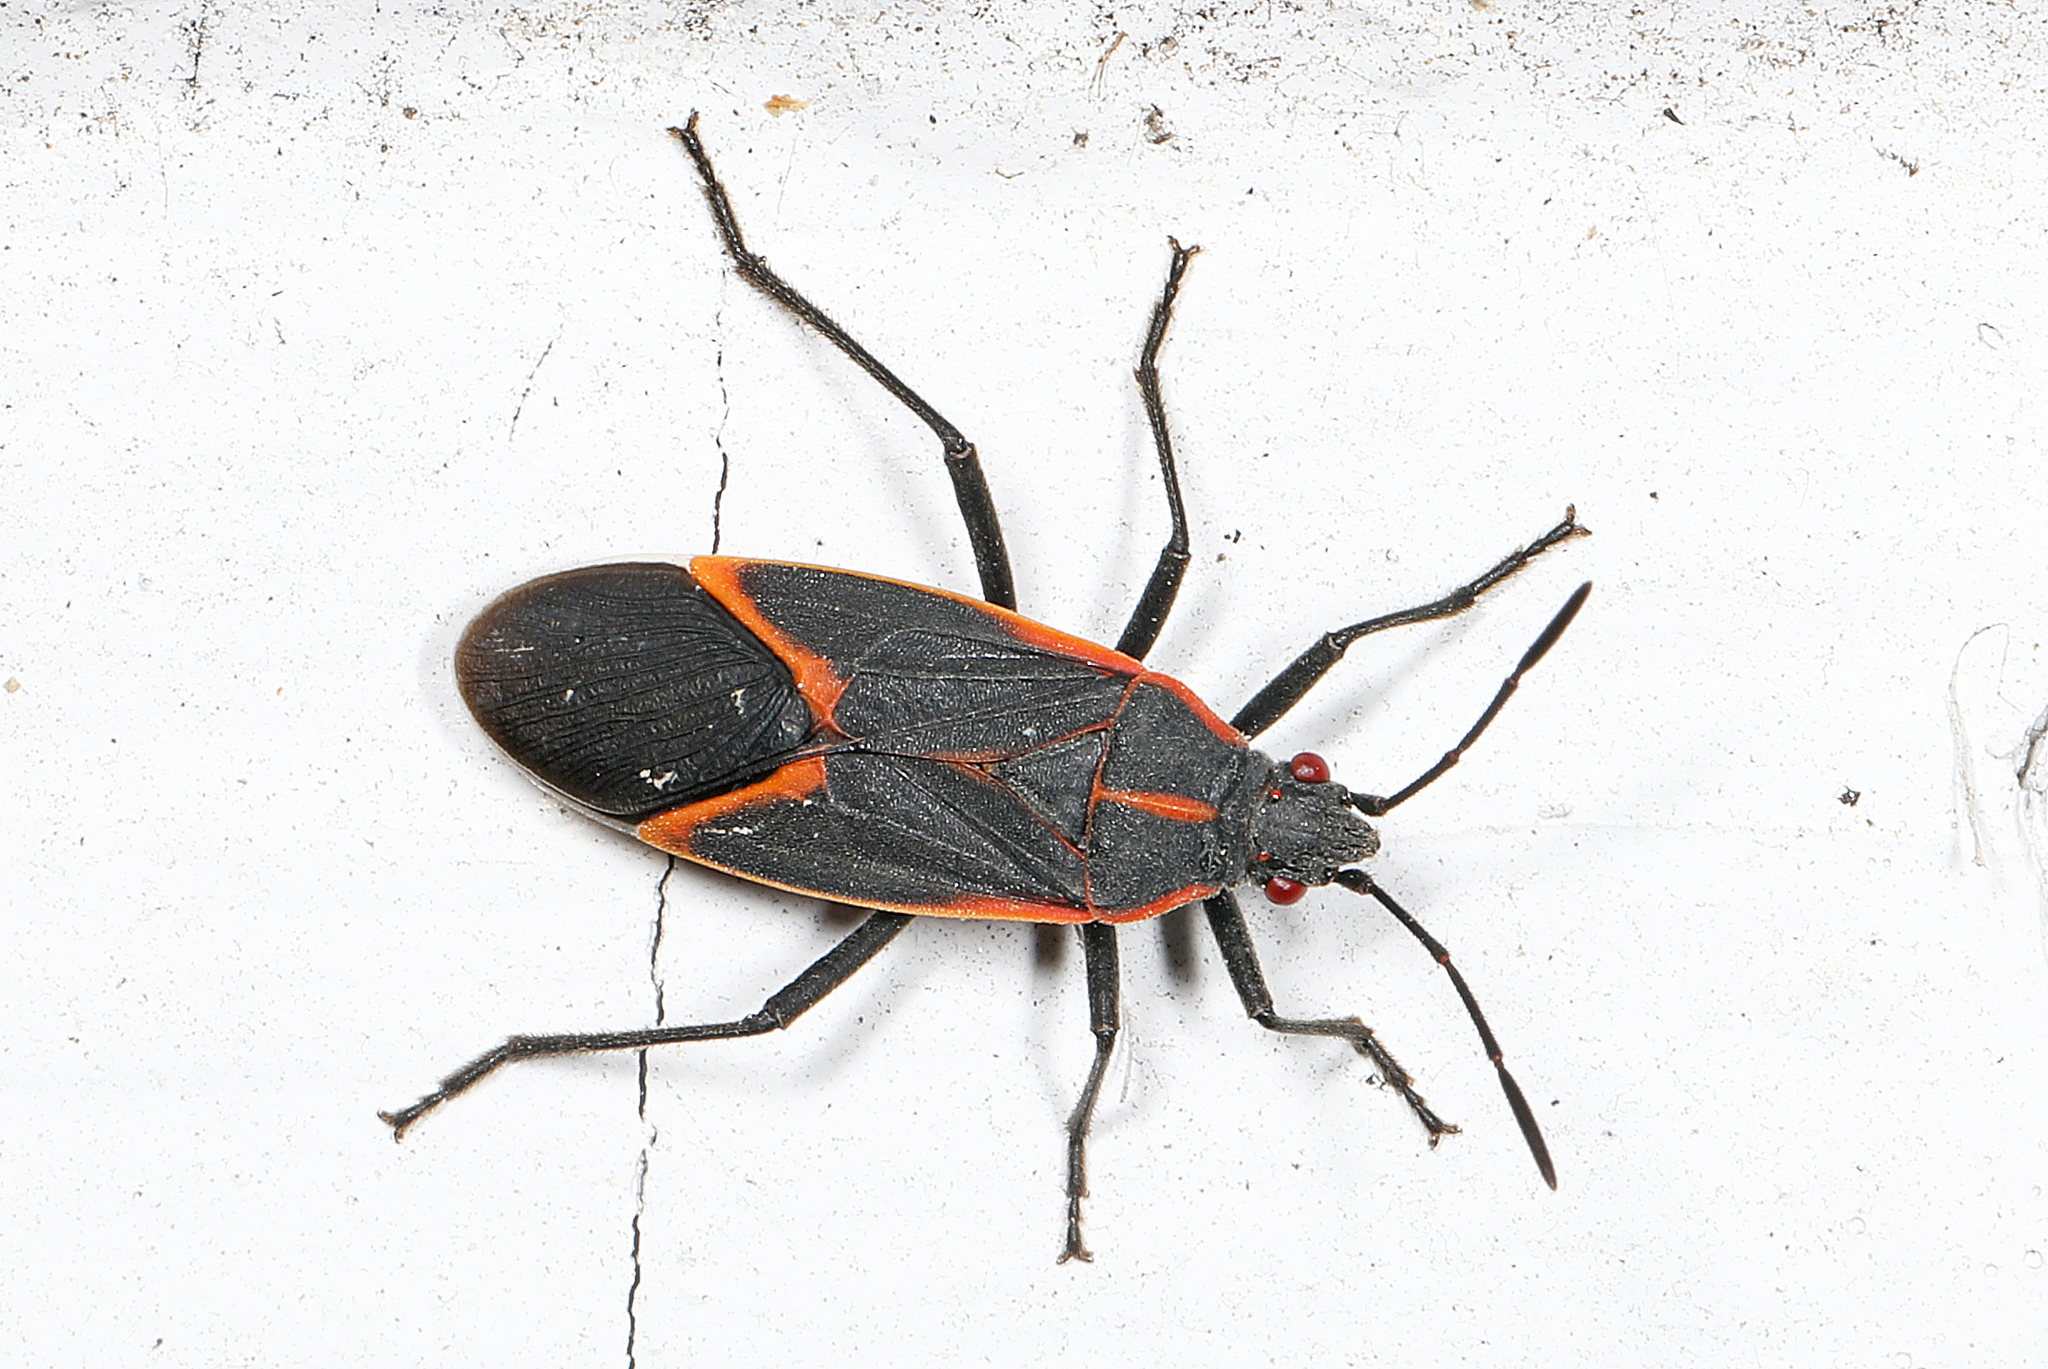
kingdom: Animalia
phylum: Arthropoda
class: Insecta
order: Hemiptera
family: Rhopalidae
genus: Boisea
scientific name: Boisea trivittata
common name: Boxelder bug
